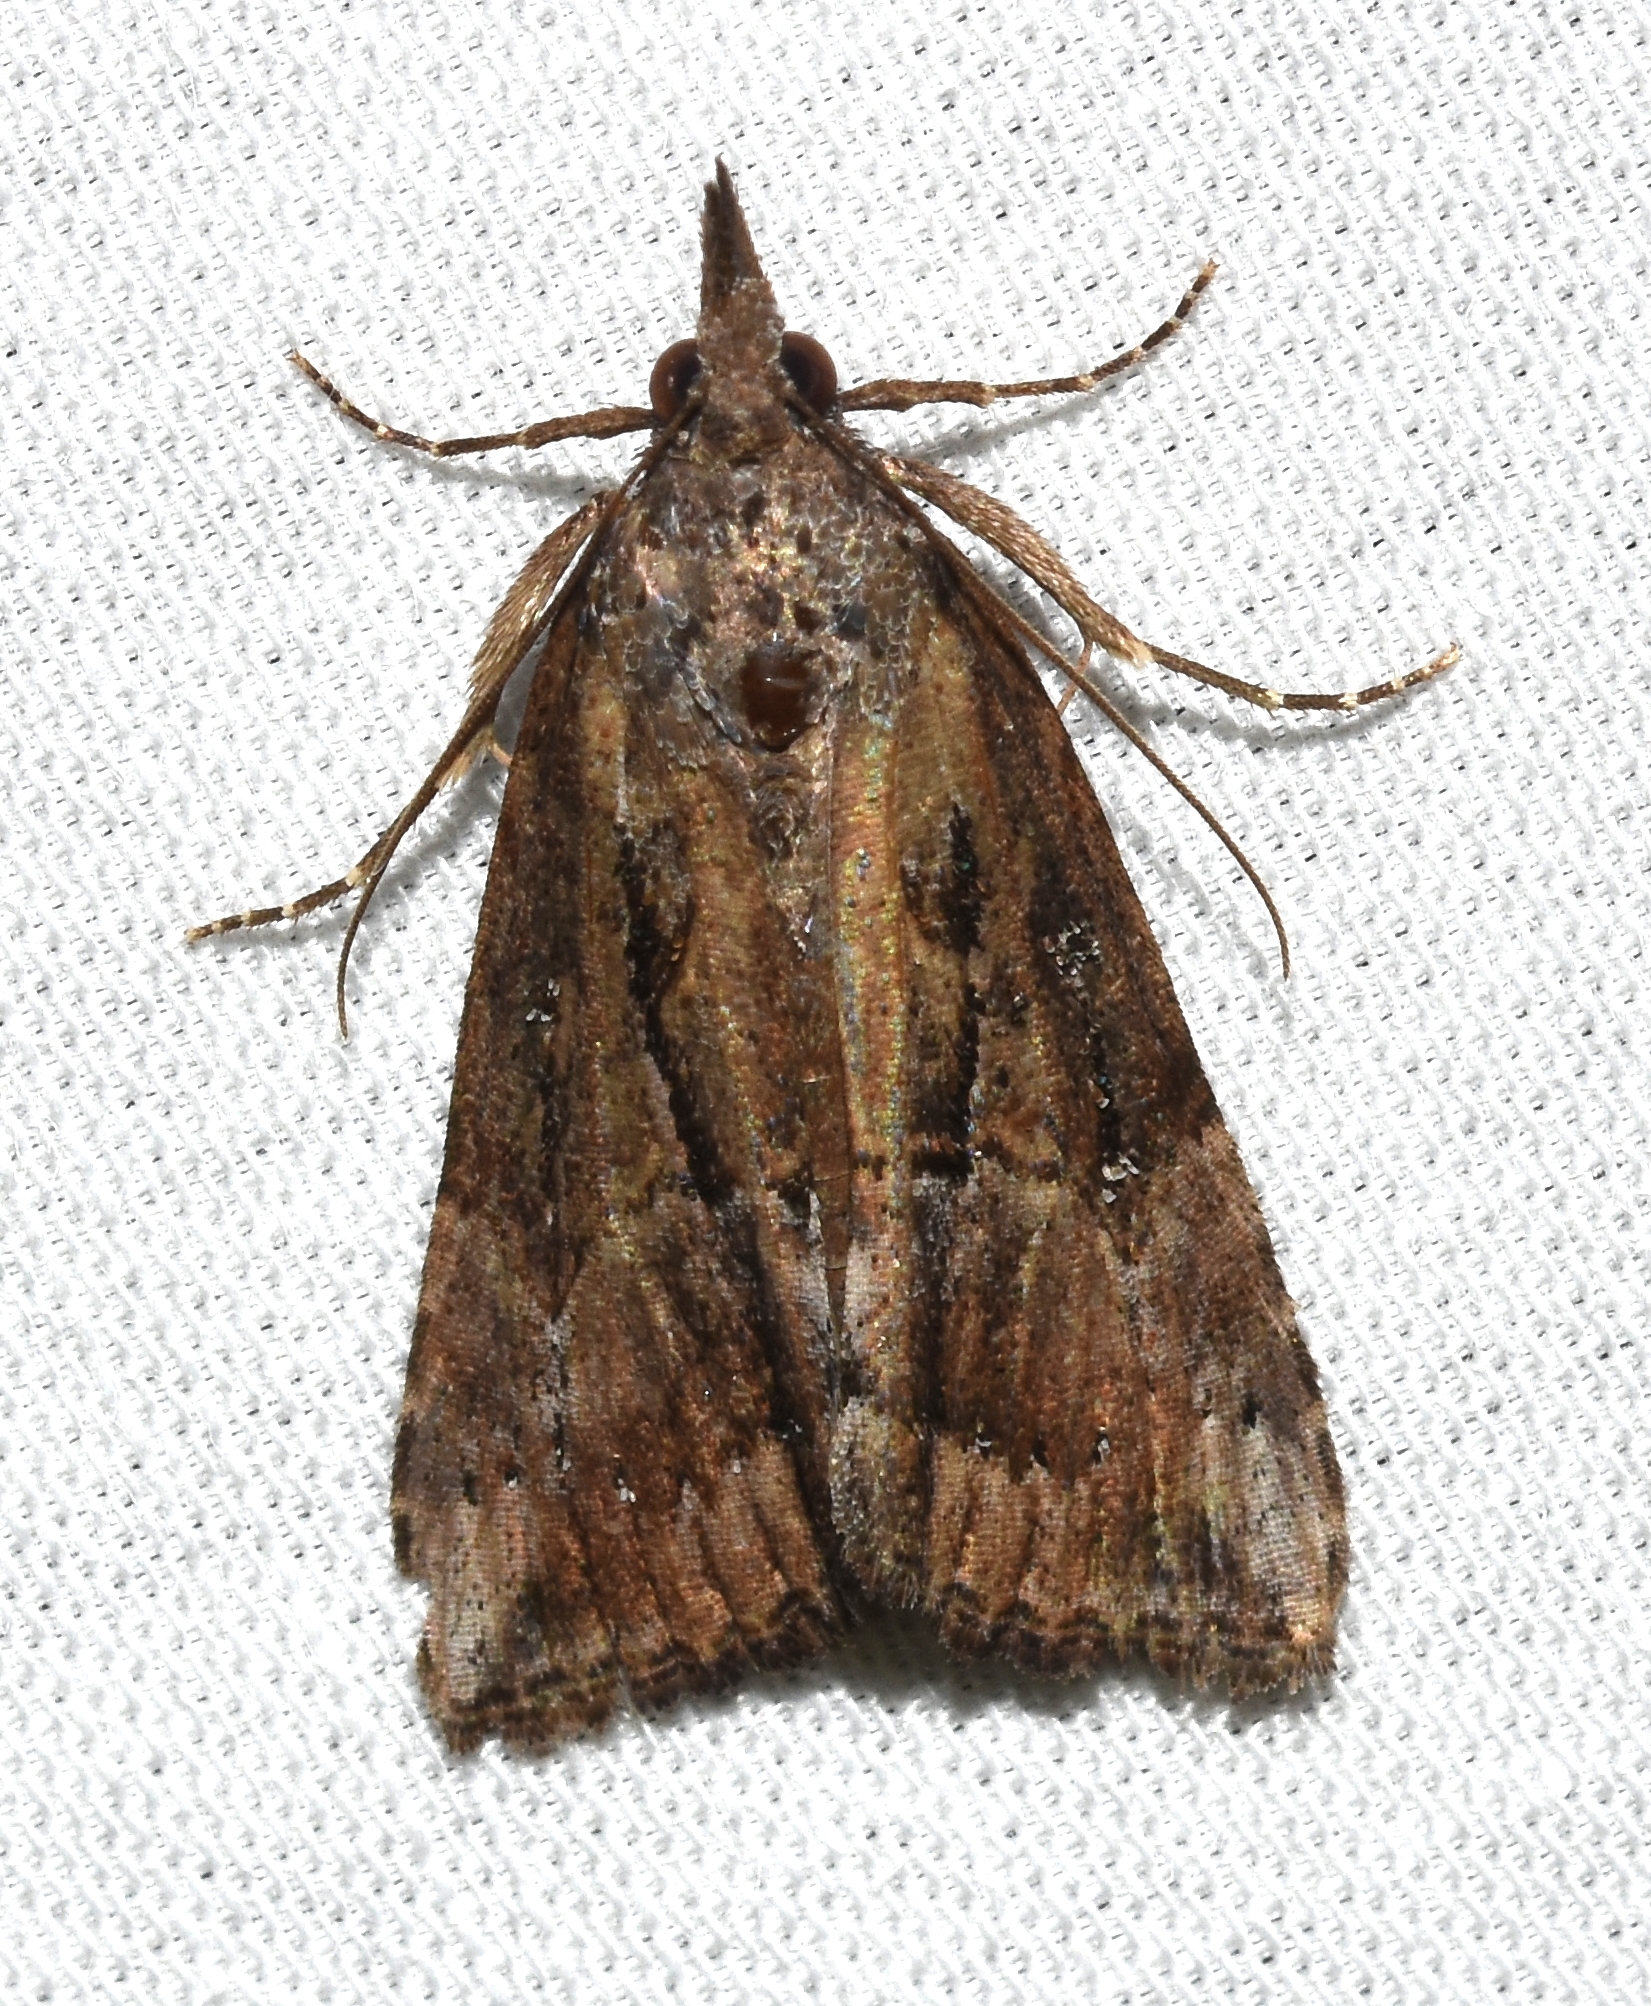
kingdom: Animalia
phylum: Arthropoda
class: Insecta
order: Lepidoptera
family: Erebidae
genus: Hypena
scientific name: Hypena scabra
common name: Green cloverworm
